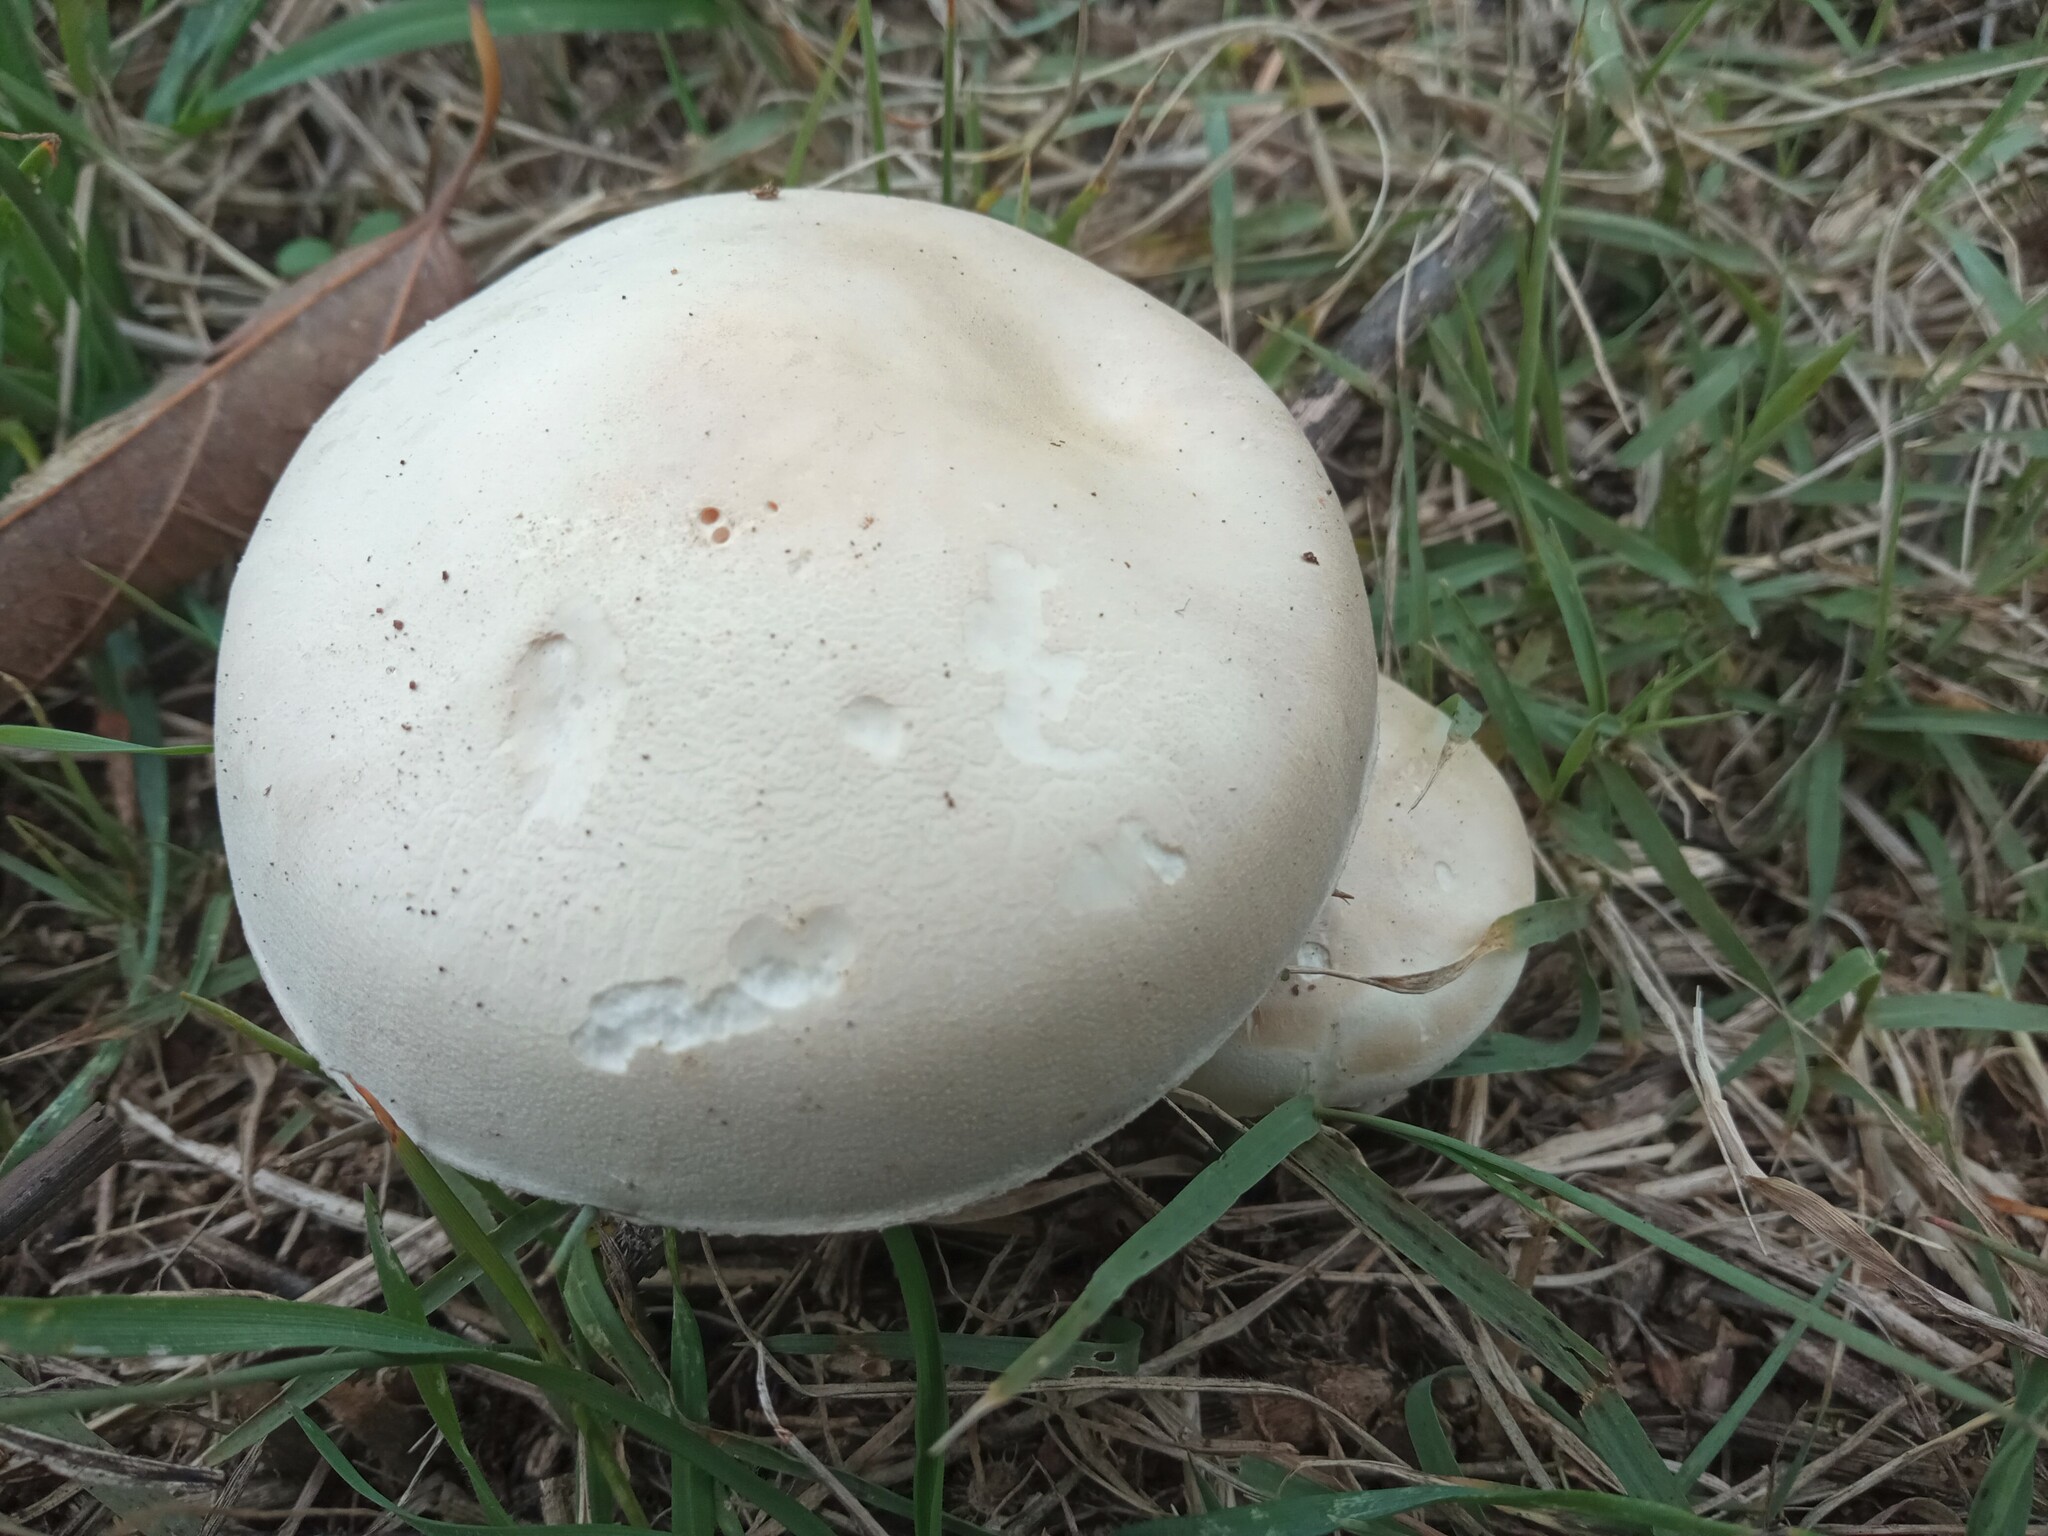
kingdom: Fungi
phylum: Basidiomycota
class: Agaricomycetes
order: Agaricales
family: Agaricaceae
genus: Leucoagaricus
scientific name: Leucoagaricus leucothites
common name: White dapperling
